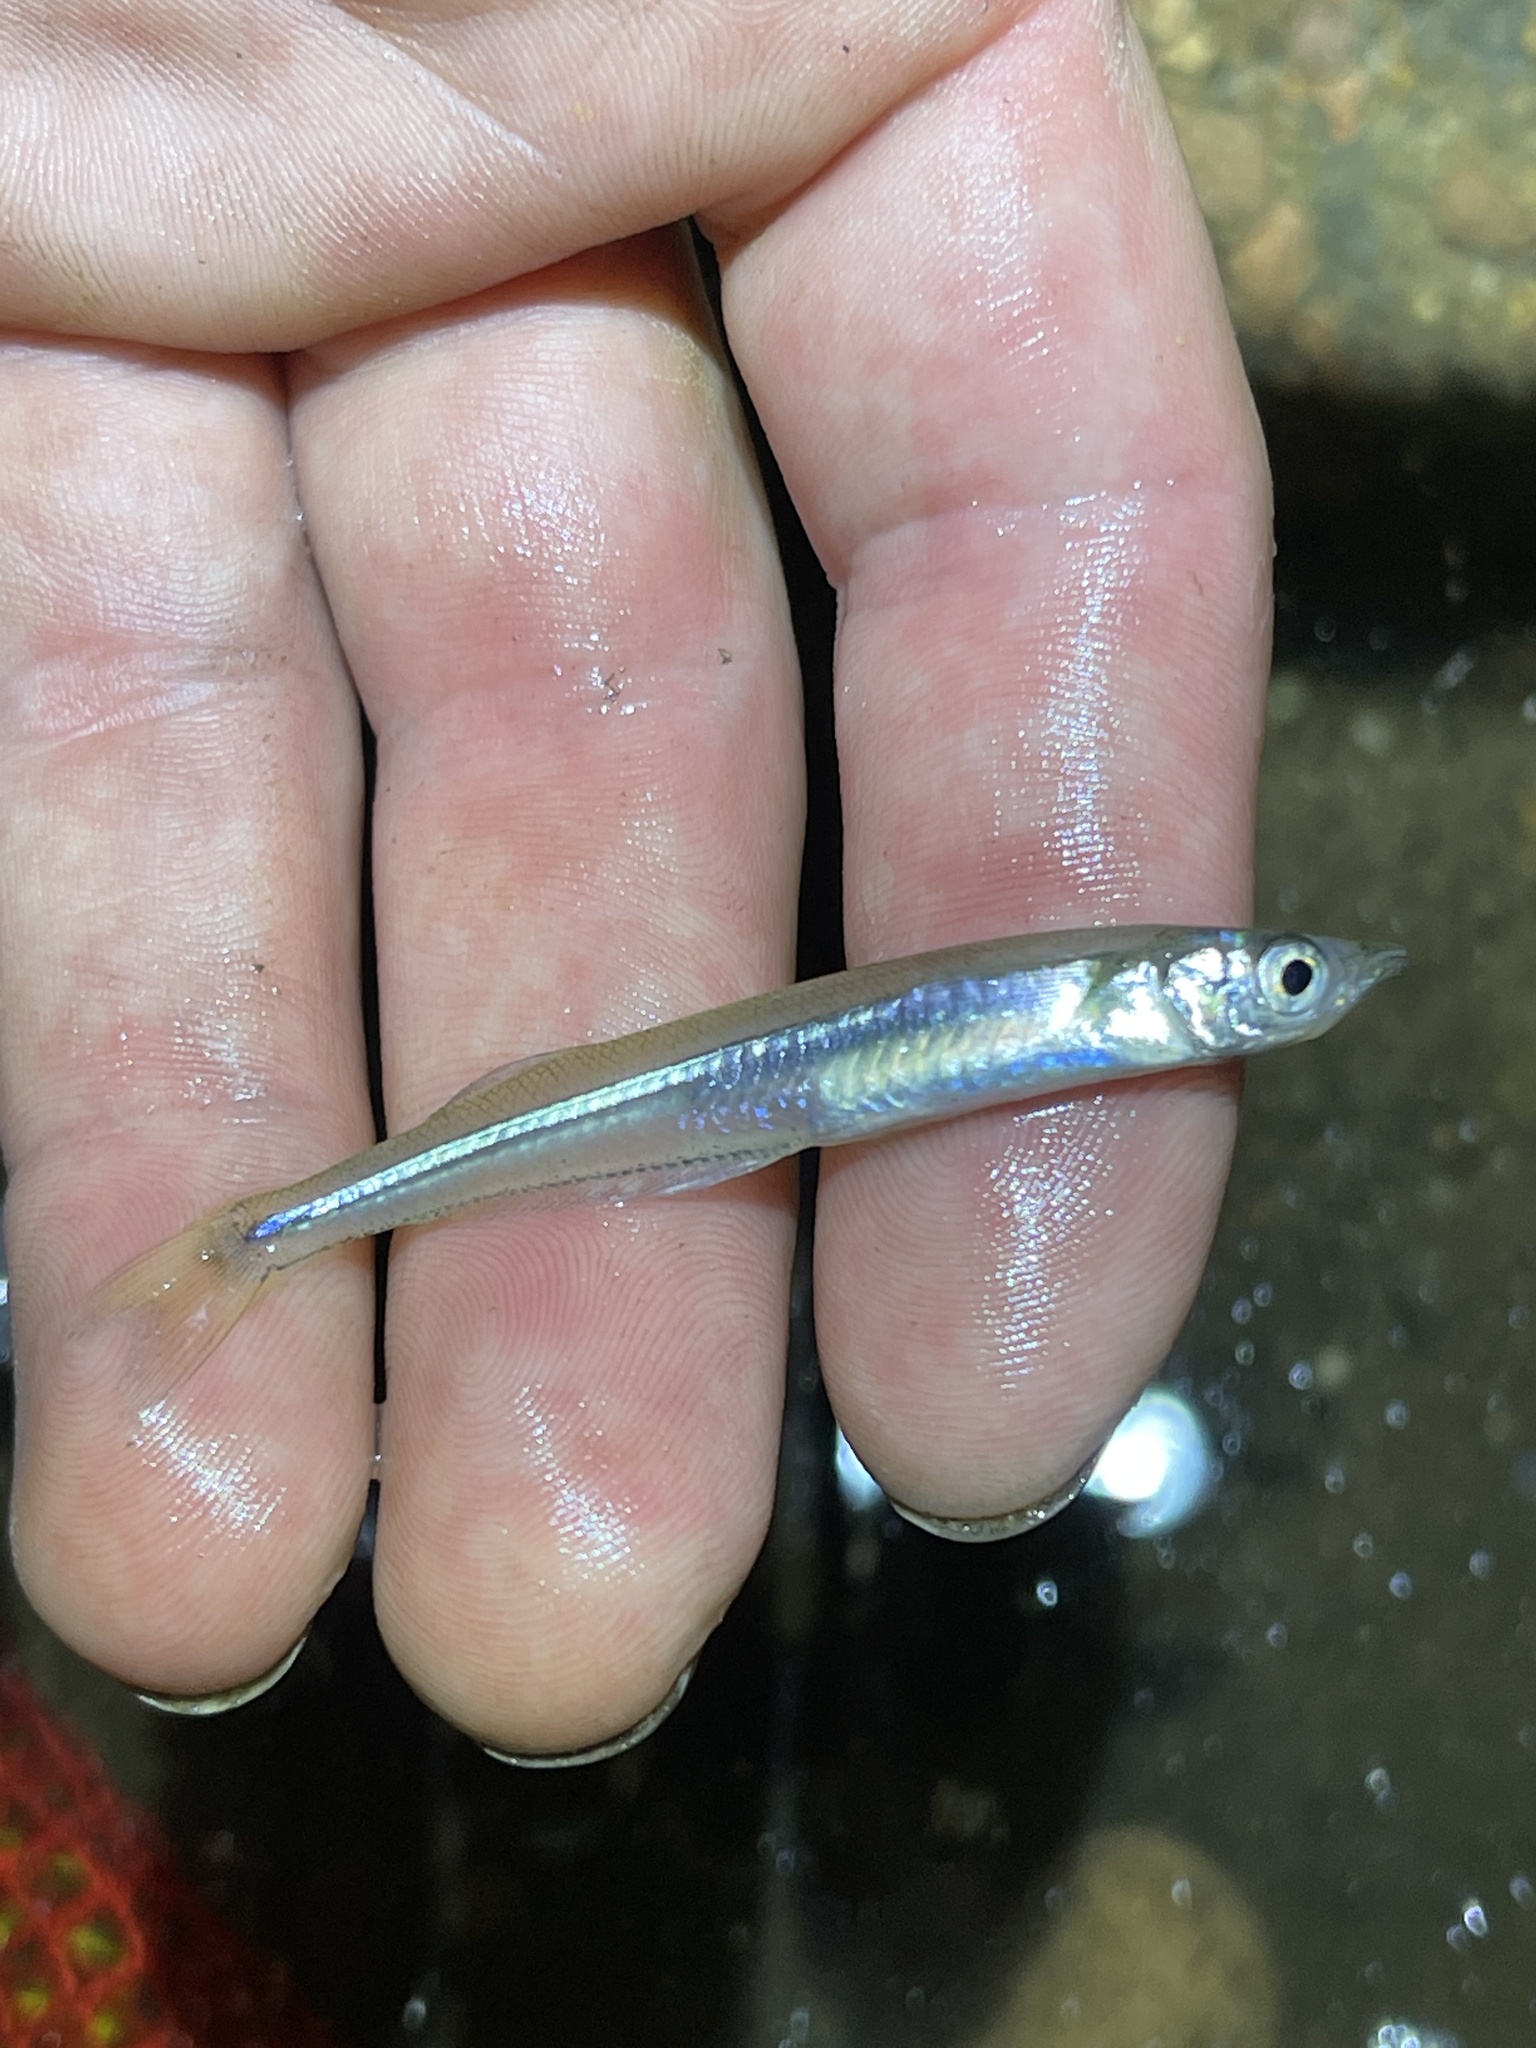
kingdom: Animalia
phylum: Chordata
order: Atheriniformes
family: Atherinopsidae
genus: Labidesthes
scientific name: Labidesthes sicculus
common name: Brook silverside
